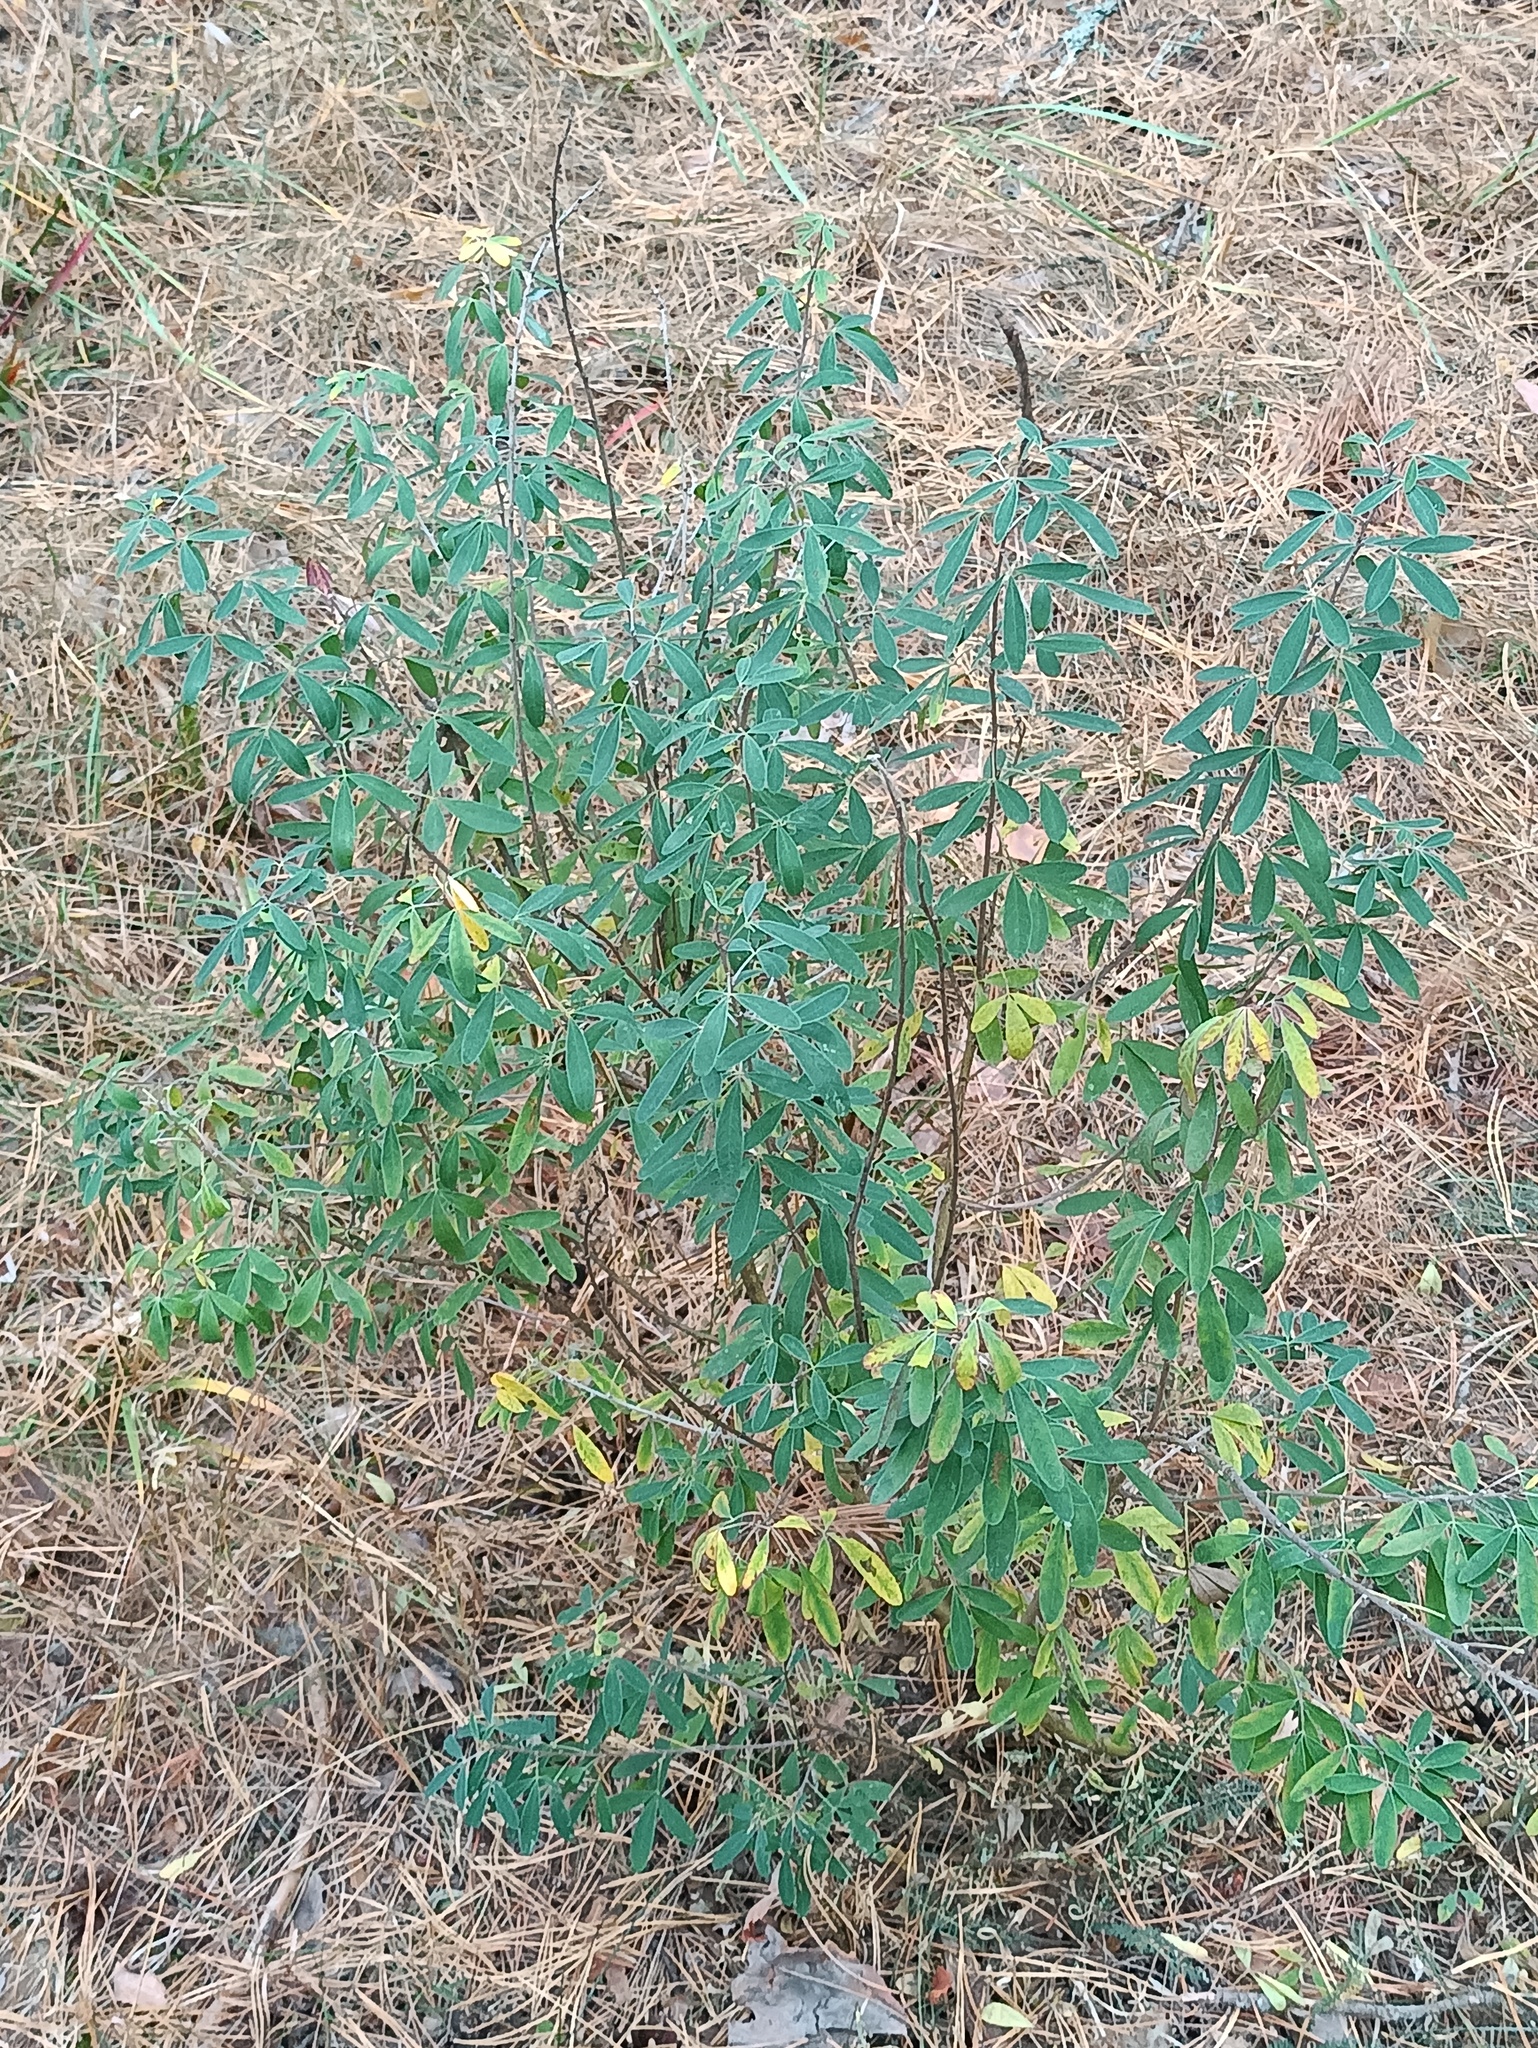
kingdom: Plantae
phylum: Tracheophyta
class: Magnoliopsida
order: Fabales
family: Fabaceae
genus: Chamaecytisus
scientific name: Chamaecytisus ruthenicus
